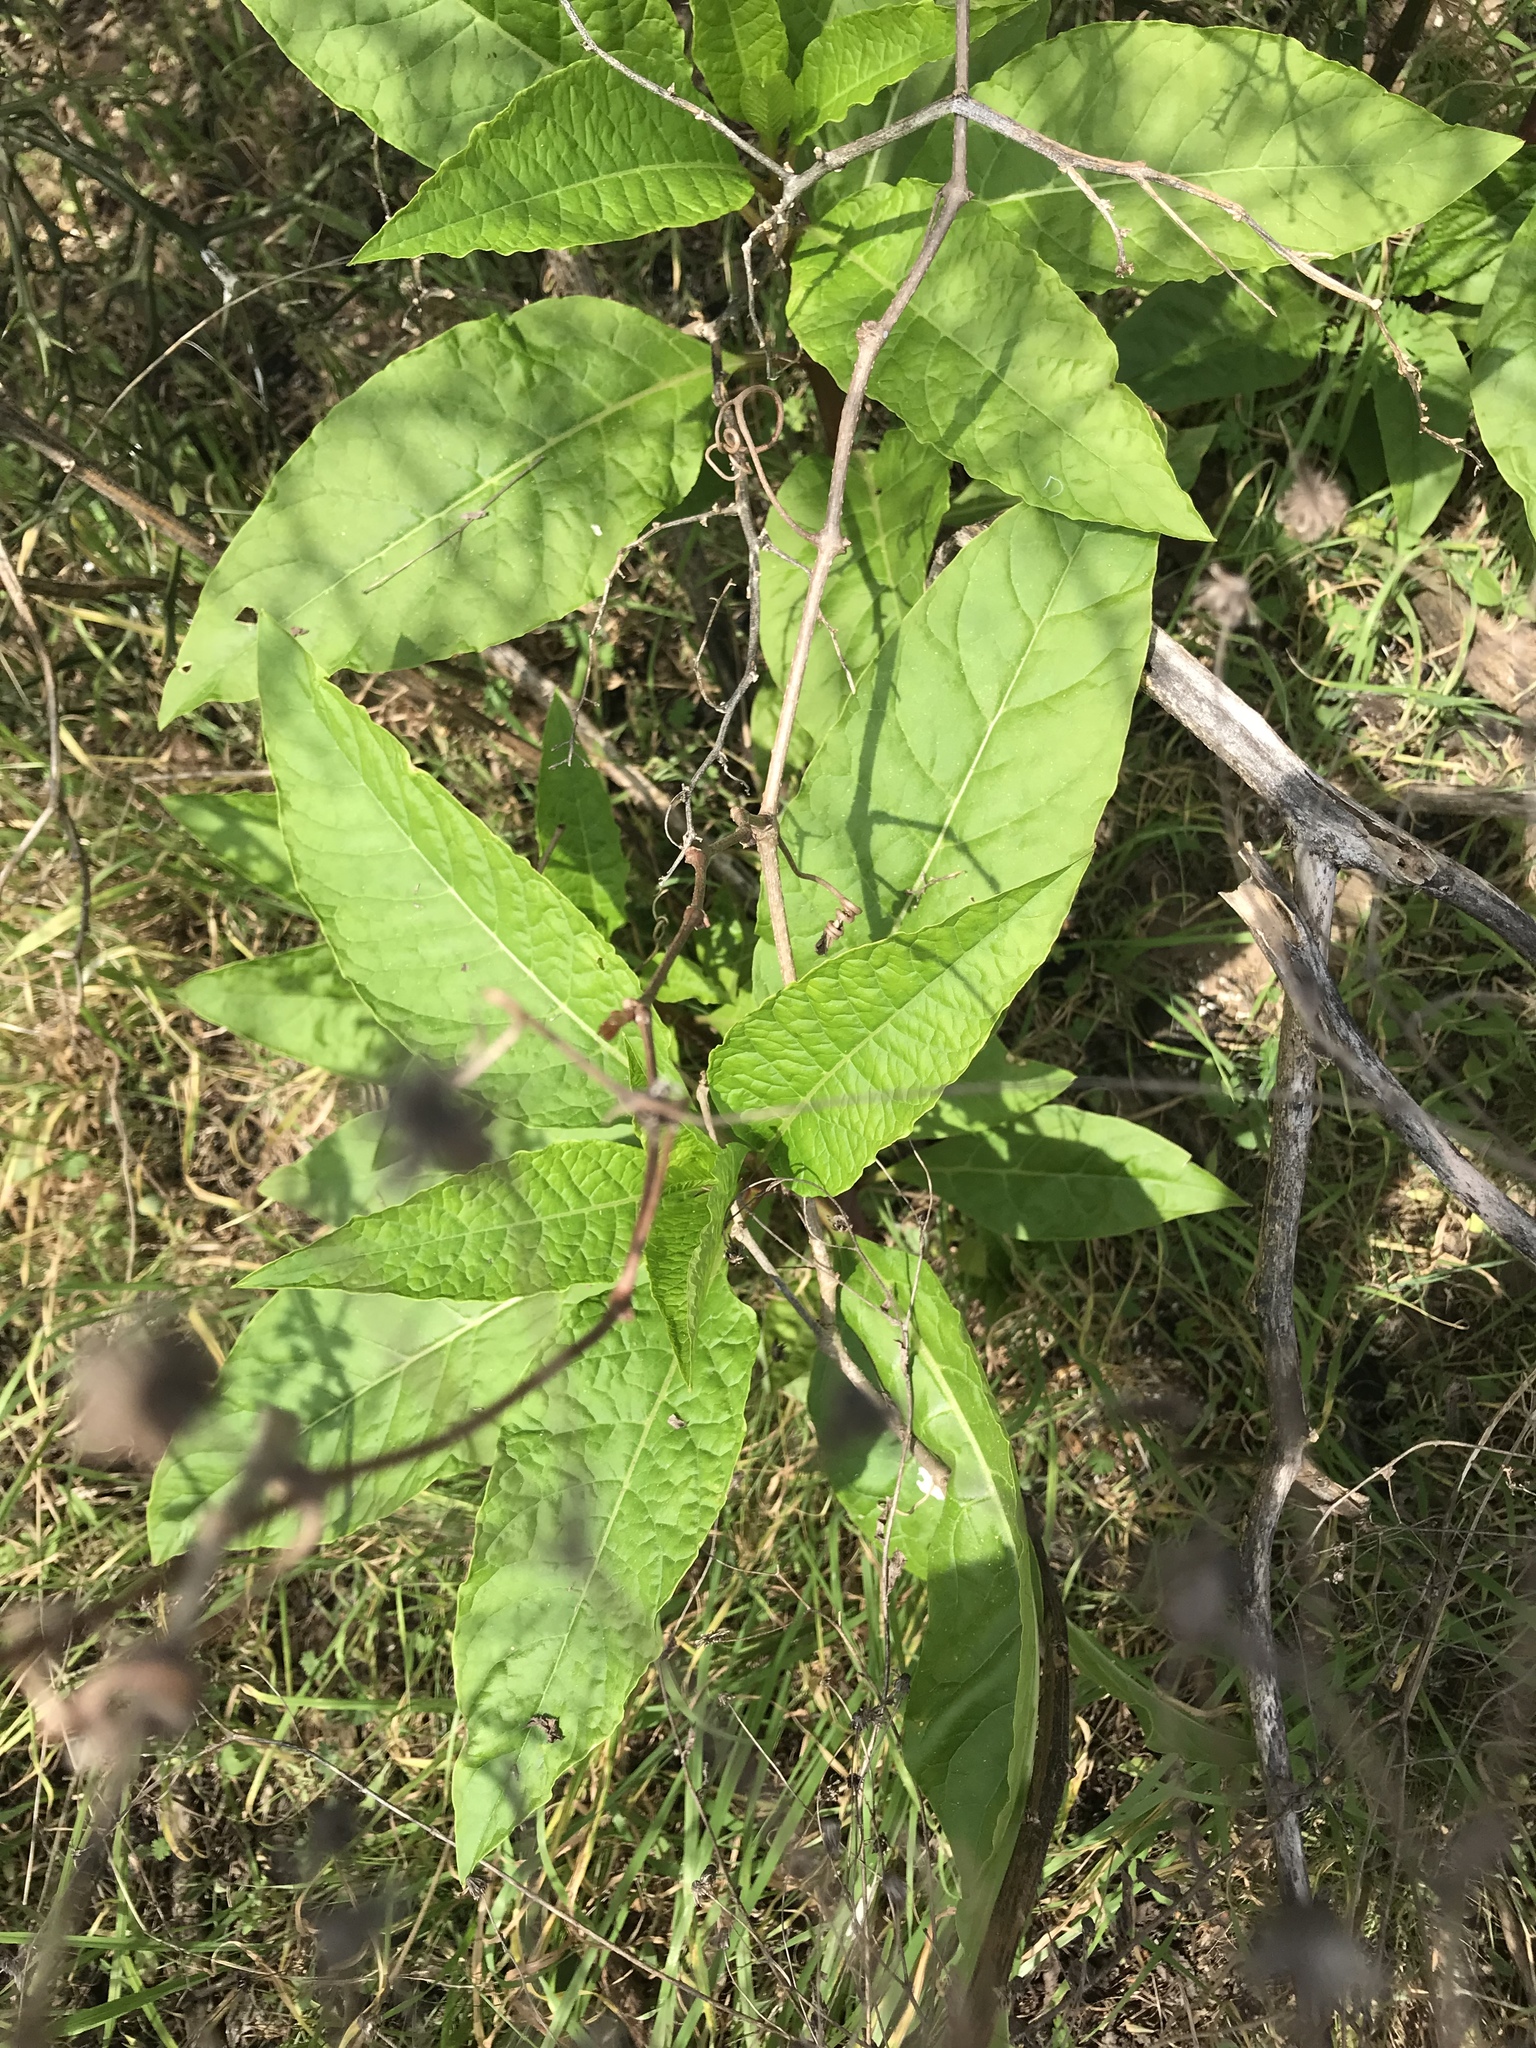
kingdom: Plantae
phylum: Tracheophyta
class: Magnoliopsida
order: Caryophyllales
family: Phytolaccaceae
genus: Phytolacca
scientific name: Phytolacca americana
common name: American pokeweed
